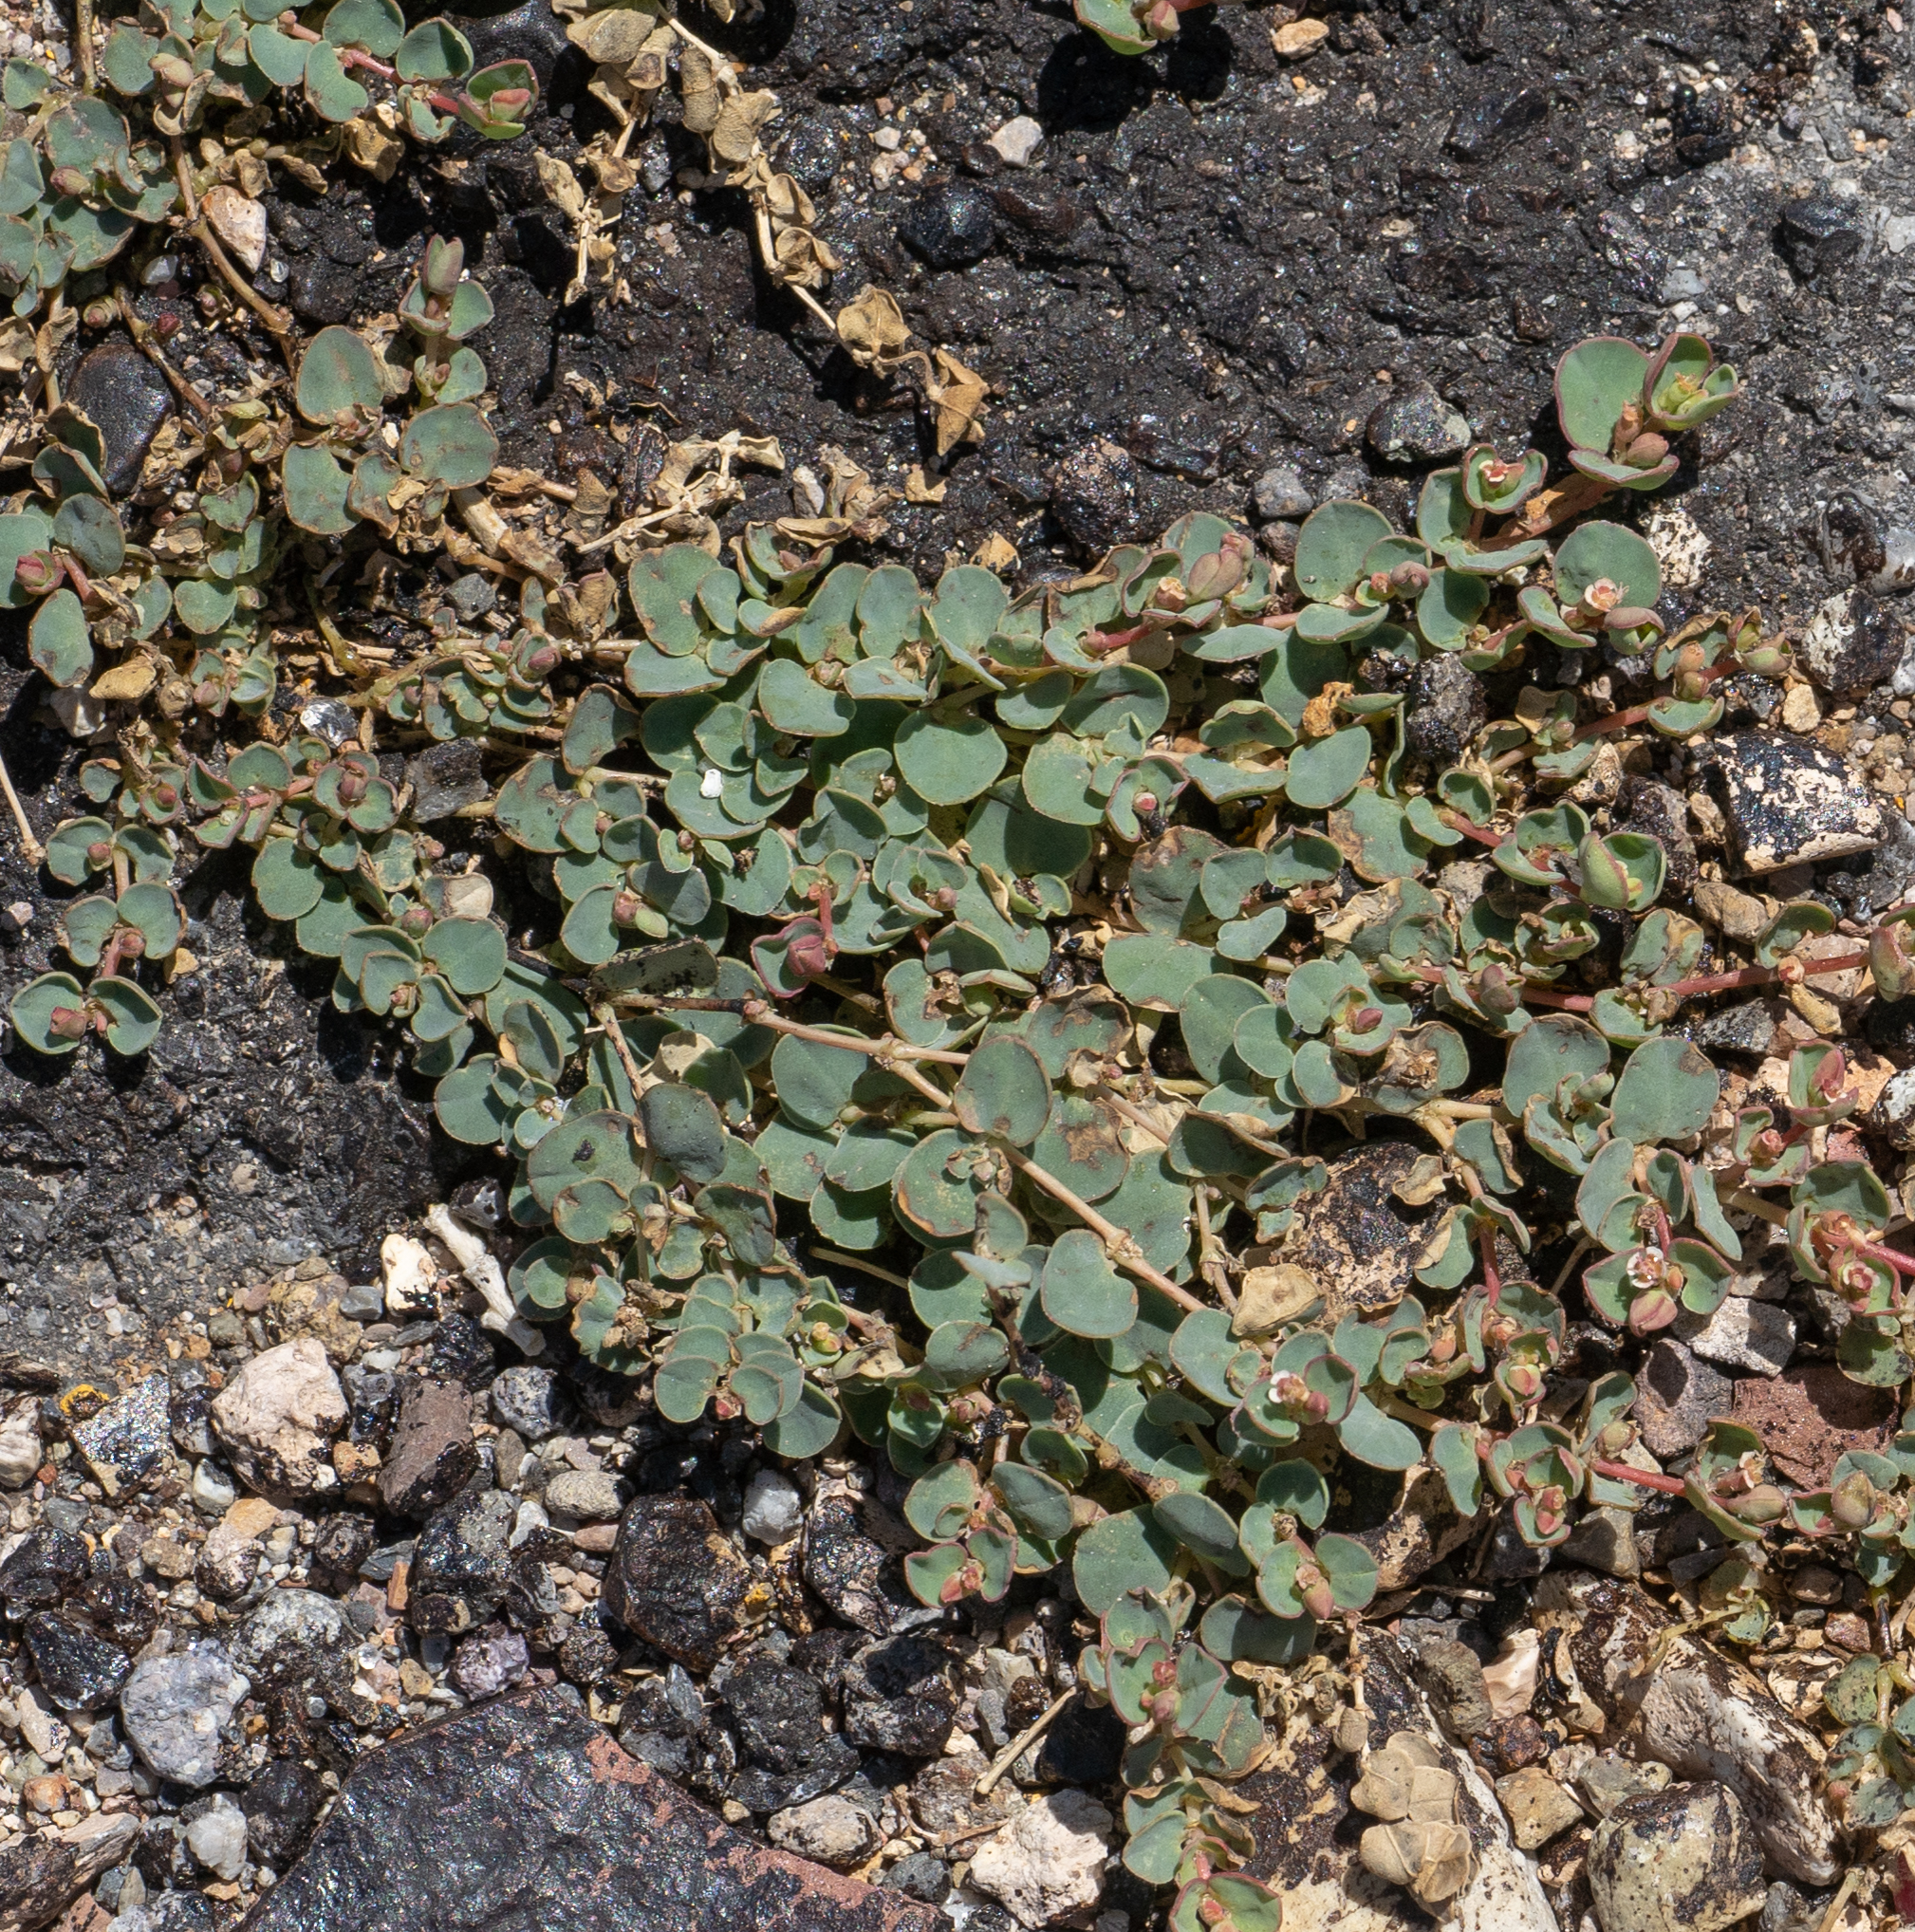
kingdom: Plantae
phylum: Tracheophyta
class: Magnoliopsida
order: Malpighiales
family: Euphorbiaceae
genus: Euphorbia
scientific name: Euphorbia albomarginata
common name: Whitemargin sandmat
